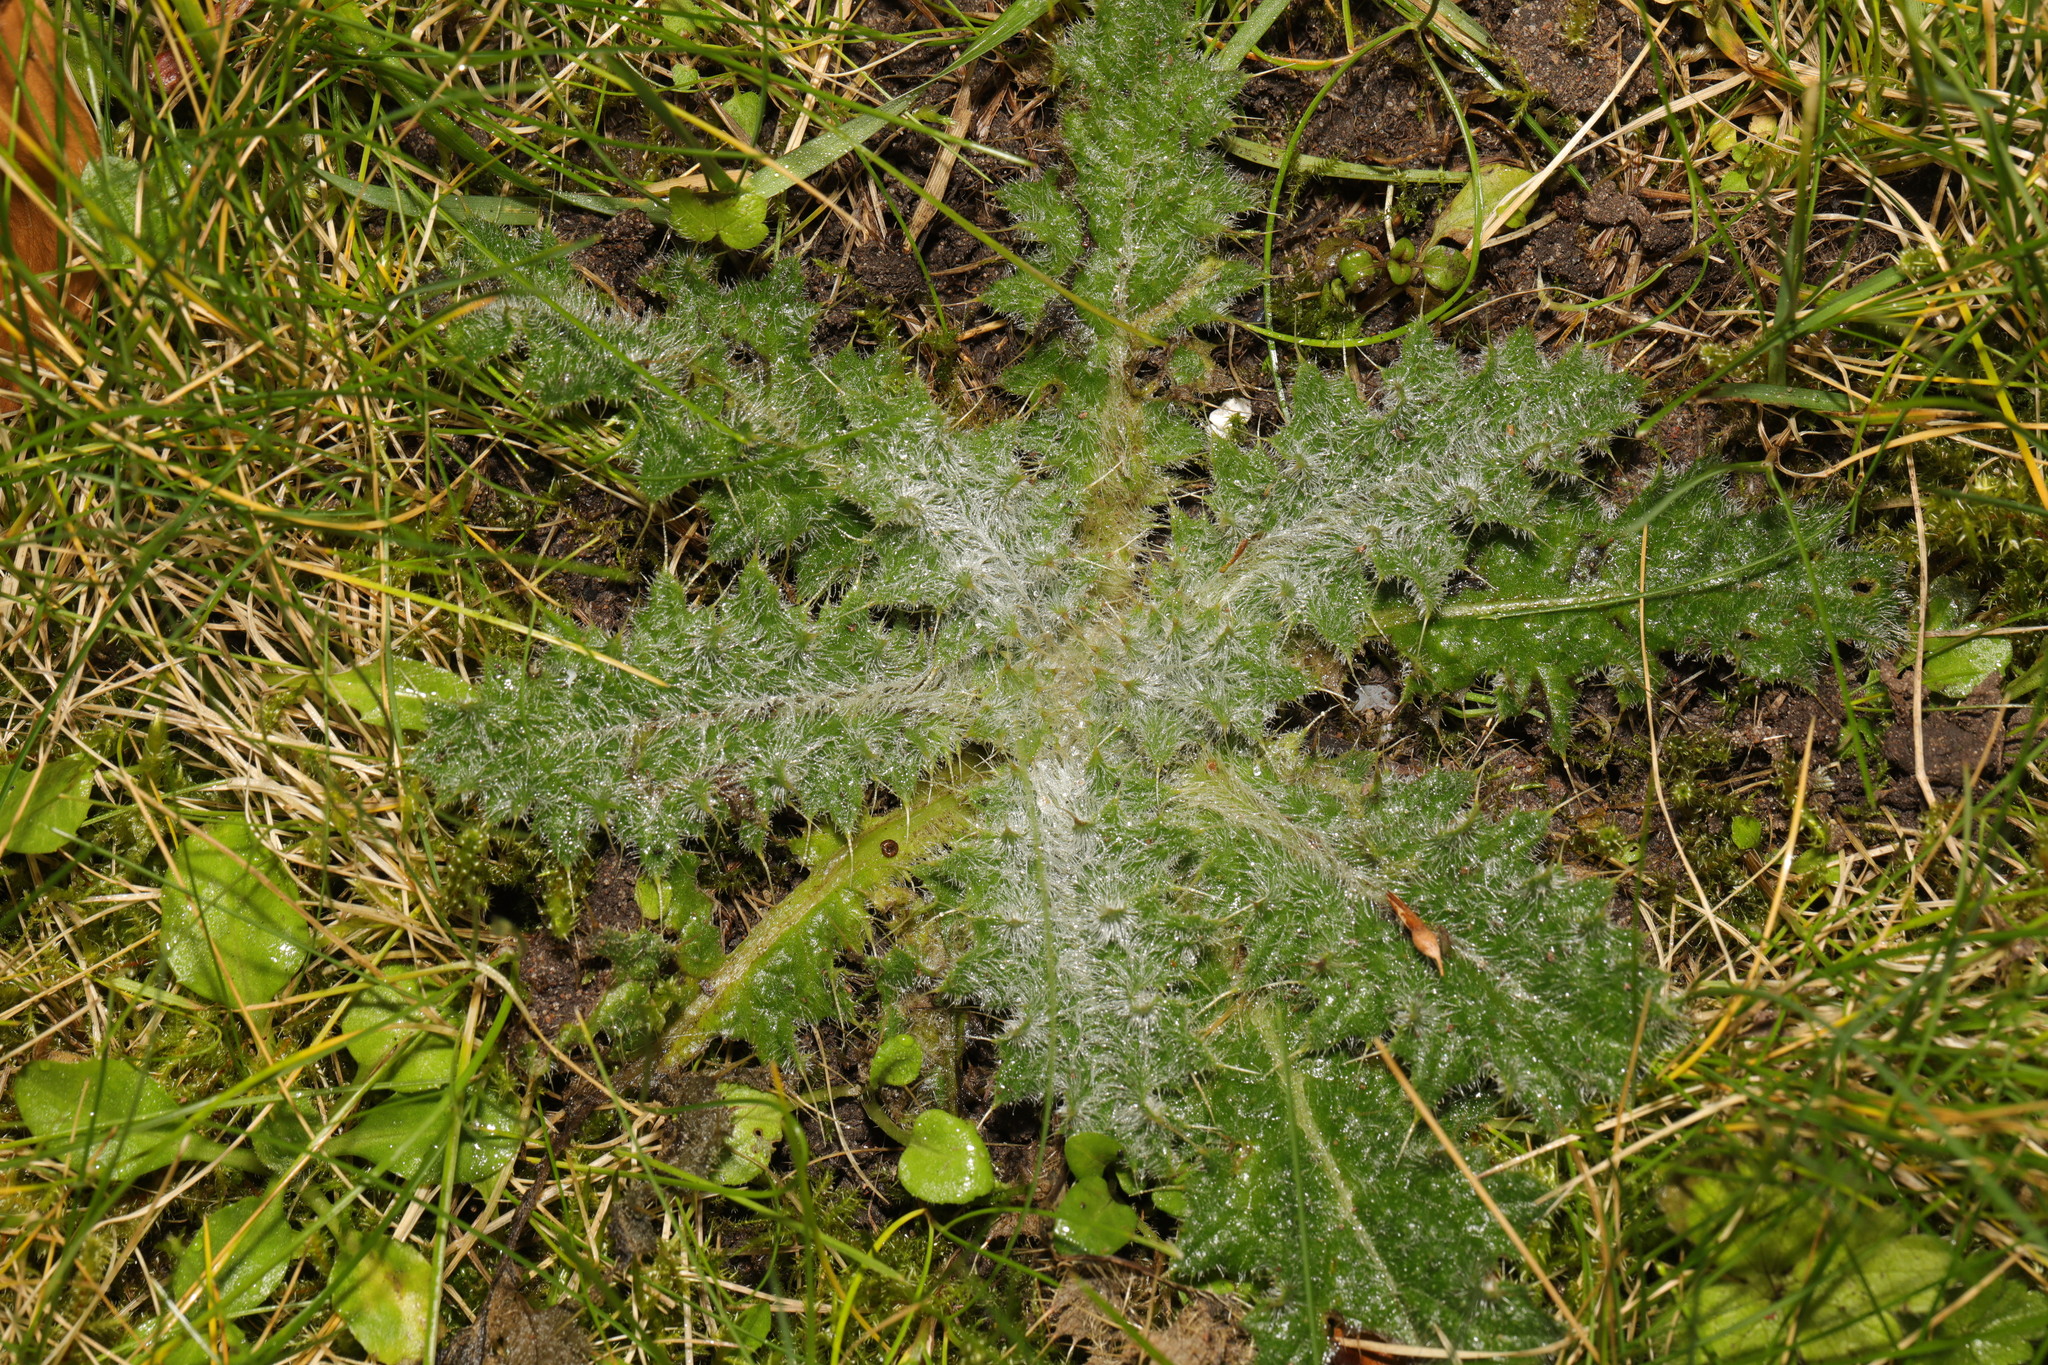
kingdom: Plantae
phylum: Tracheophyta
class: Magnoliopsida
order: Asterales
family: Asteraceae
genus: Cirsium
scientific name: Cirsium vulgare
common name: Bull thistle
